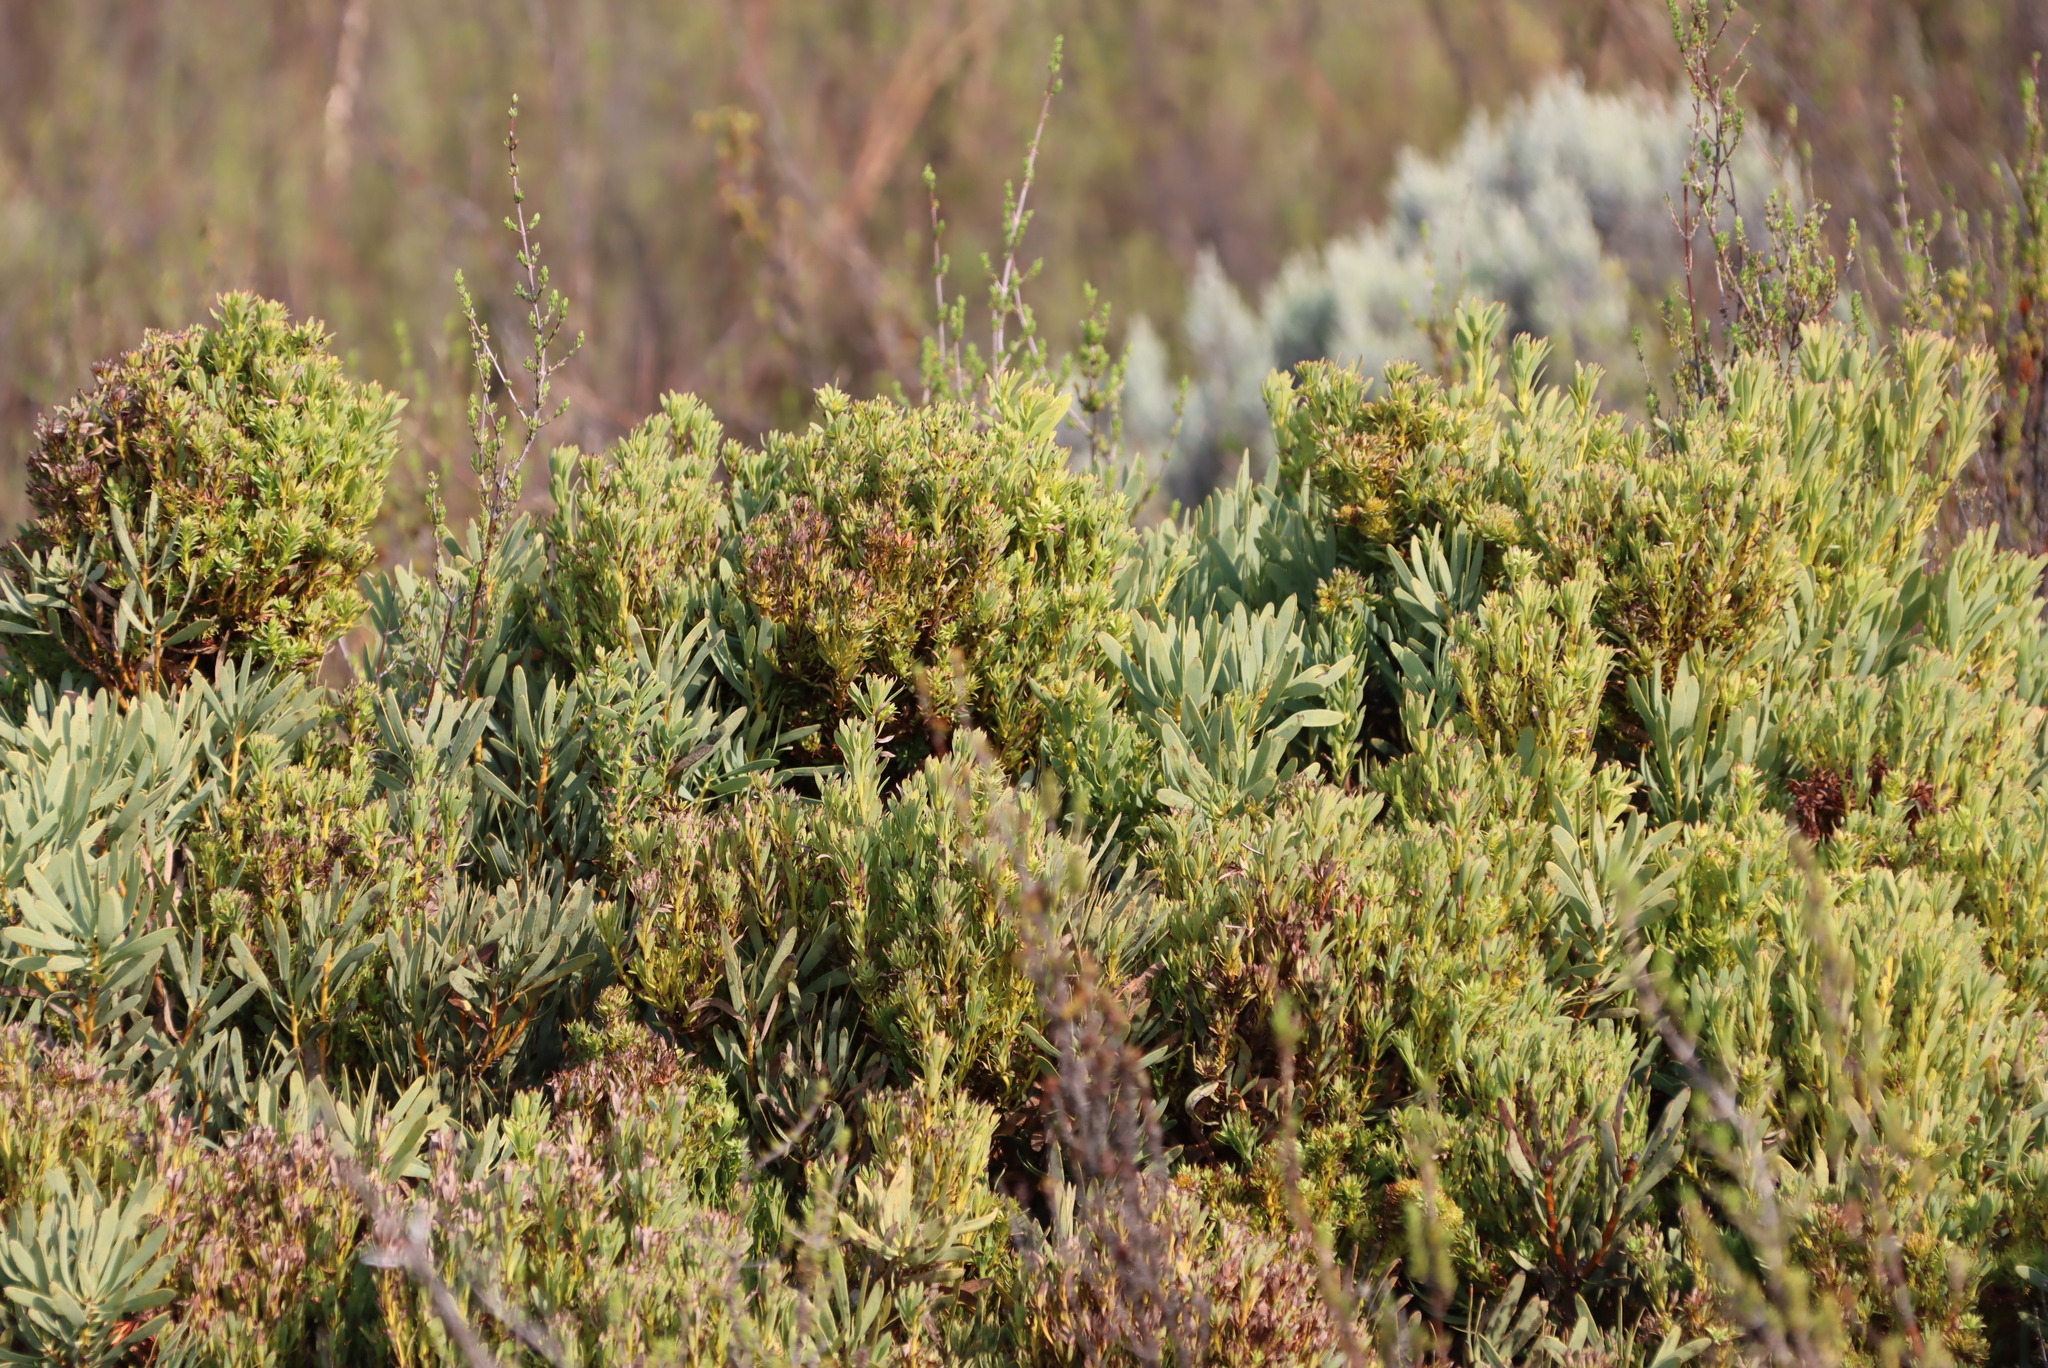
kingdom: Bacteria
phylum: Firmicutes
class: Bacilli
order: Acholeplasmatales
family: Acholeplasmataceae
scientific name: Acholeplasmataceae
